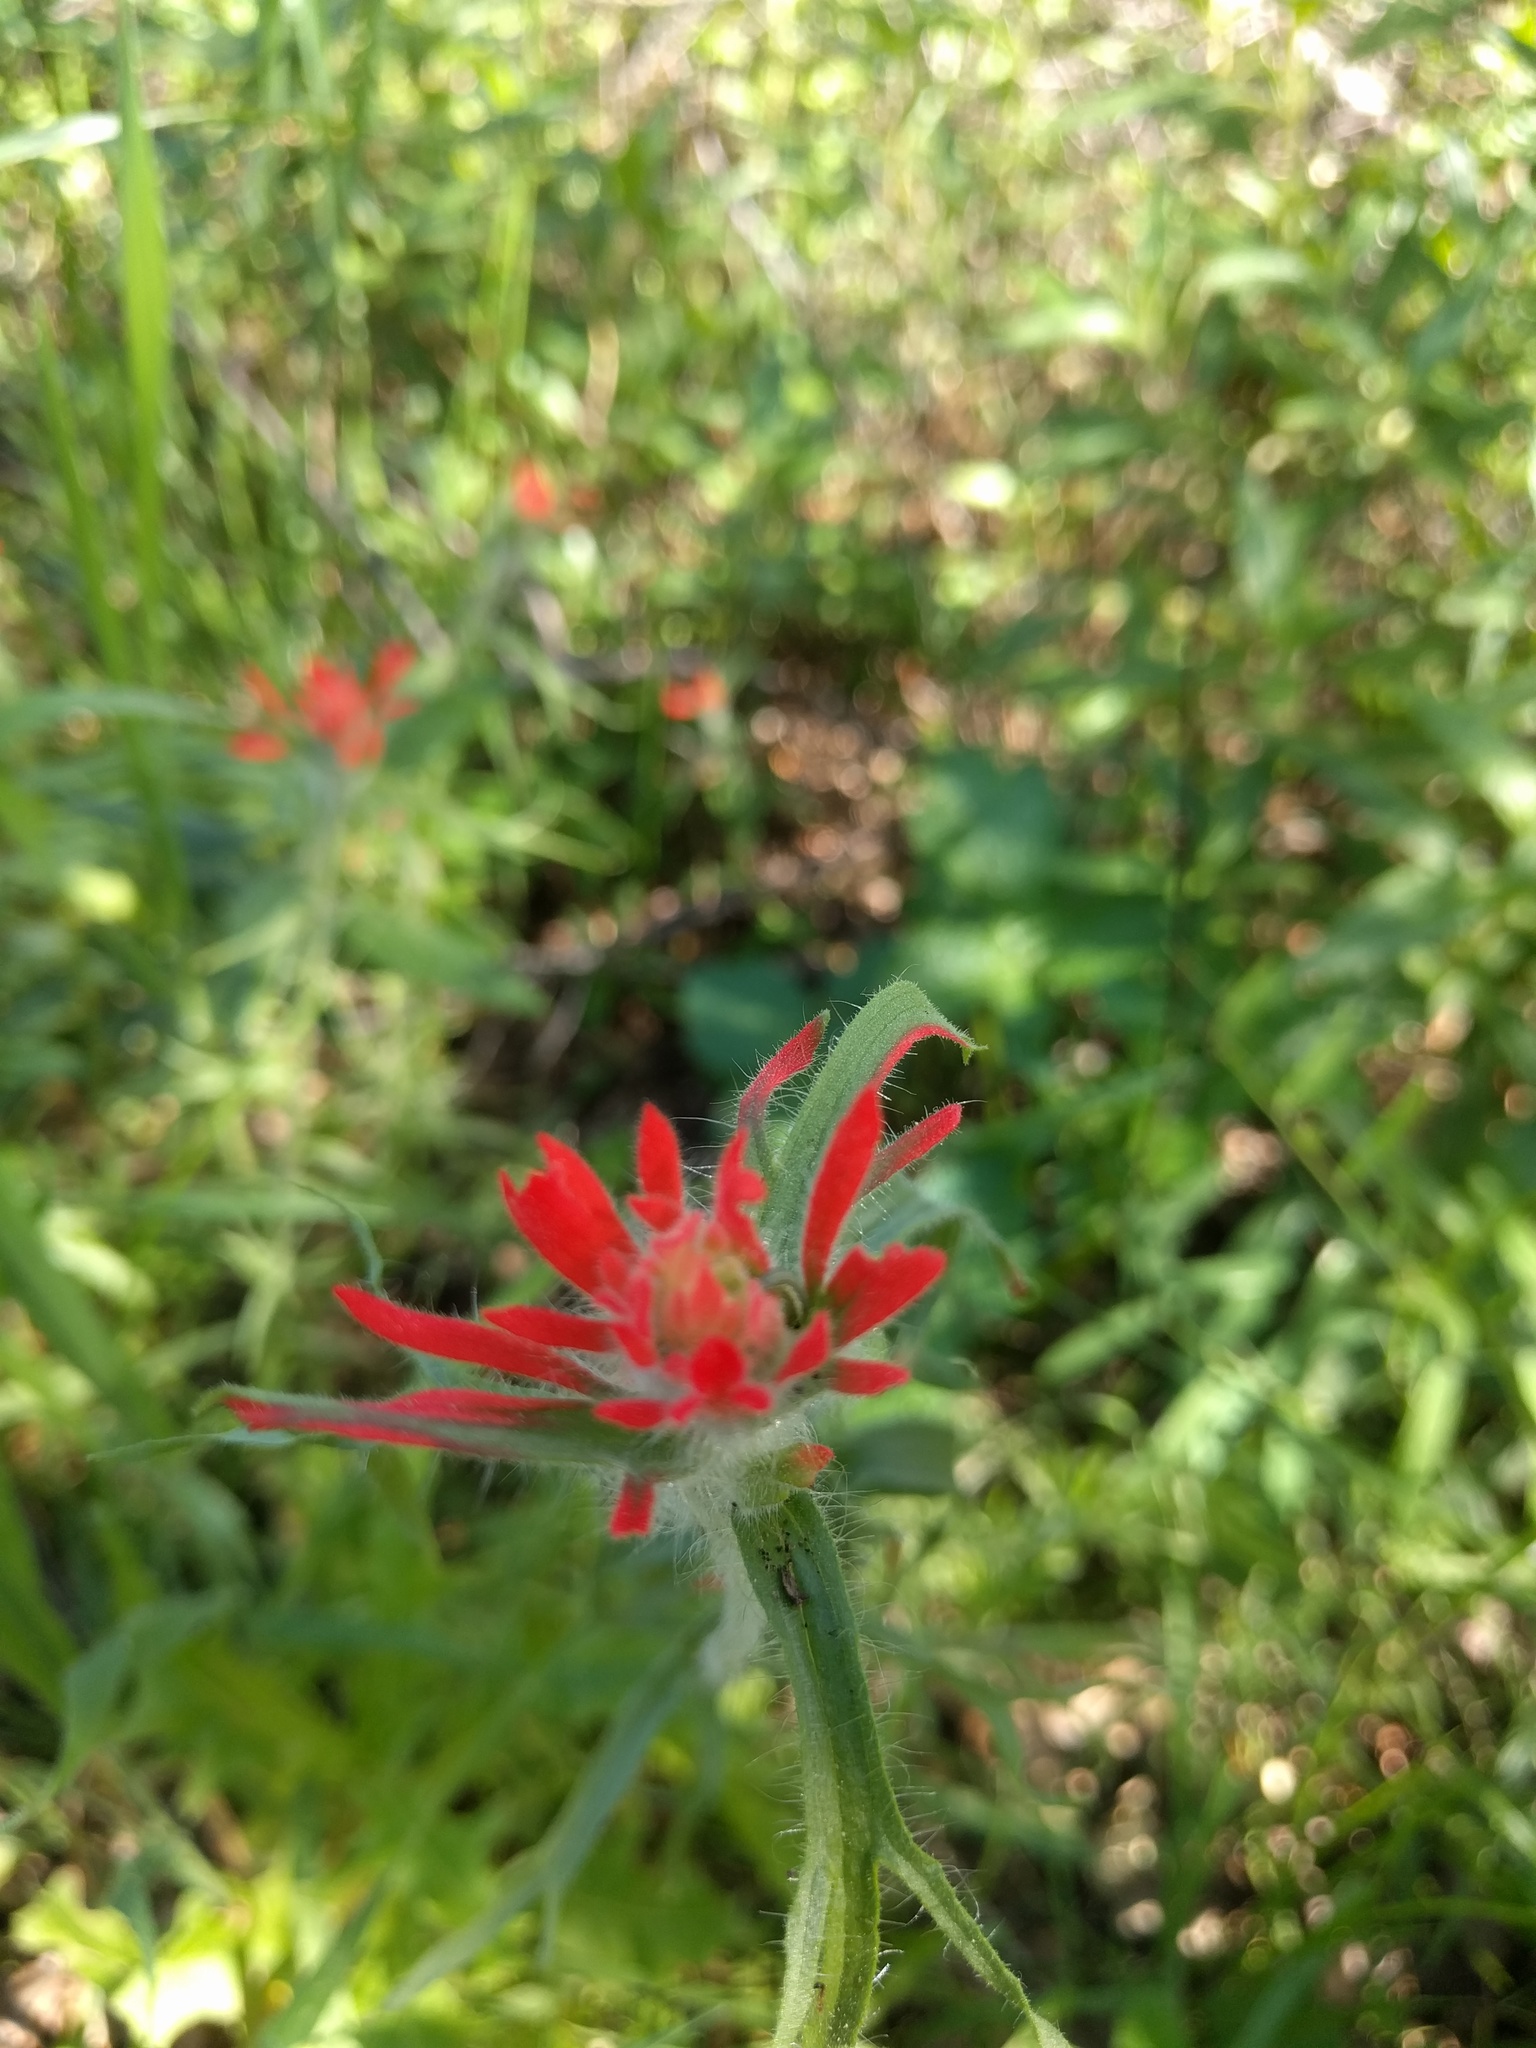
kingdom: Plantae
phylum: Tracheophyta
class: Magnoliopsida
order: Lamiales
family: Orobanchaceae
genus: Castilleja
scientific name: Castilleja affinis
